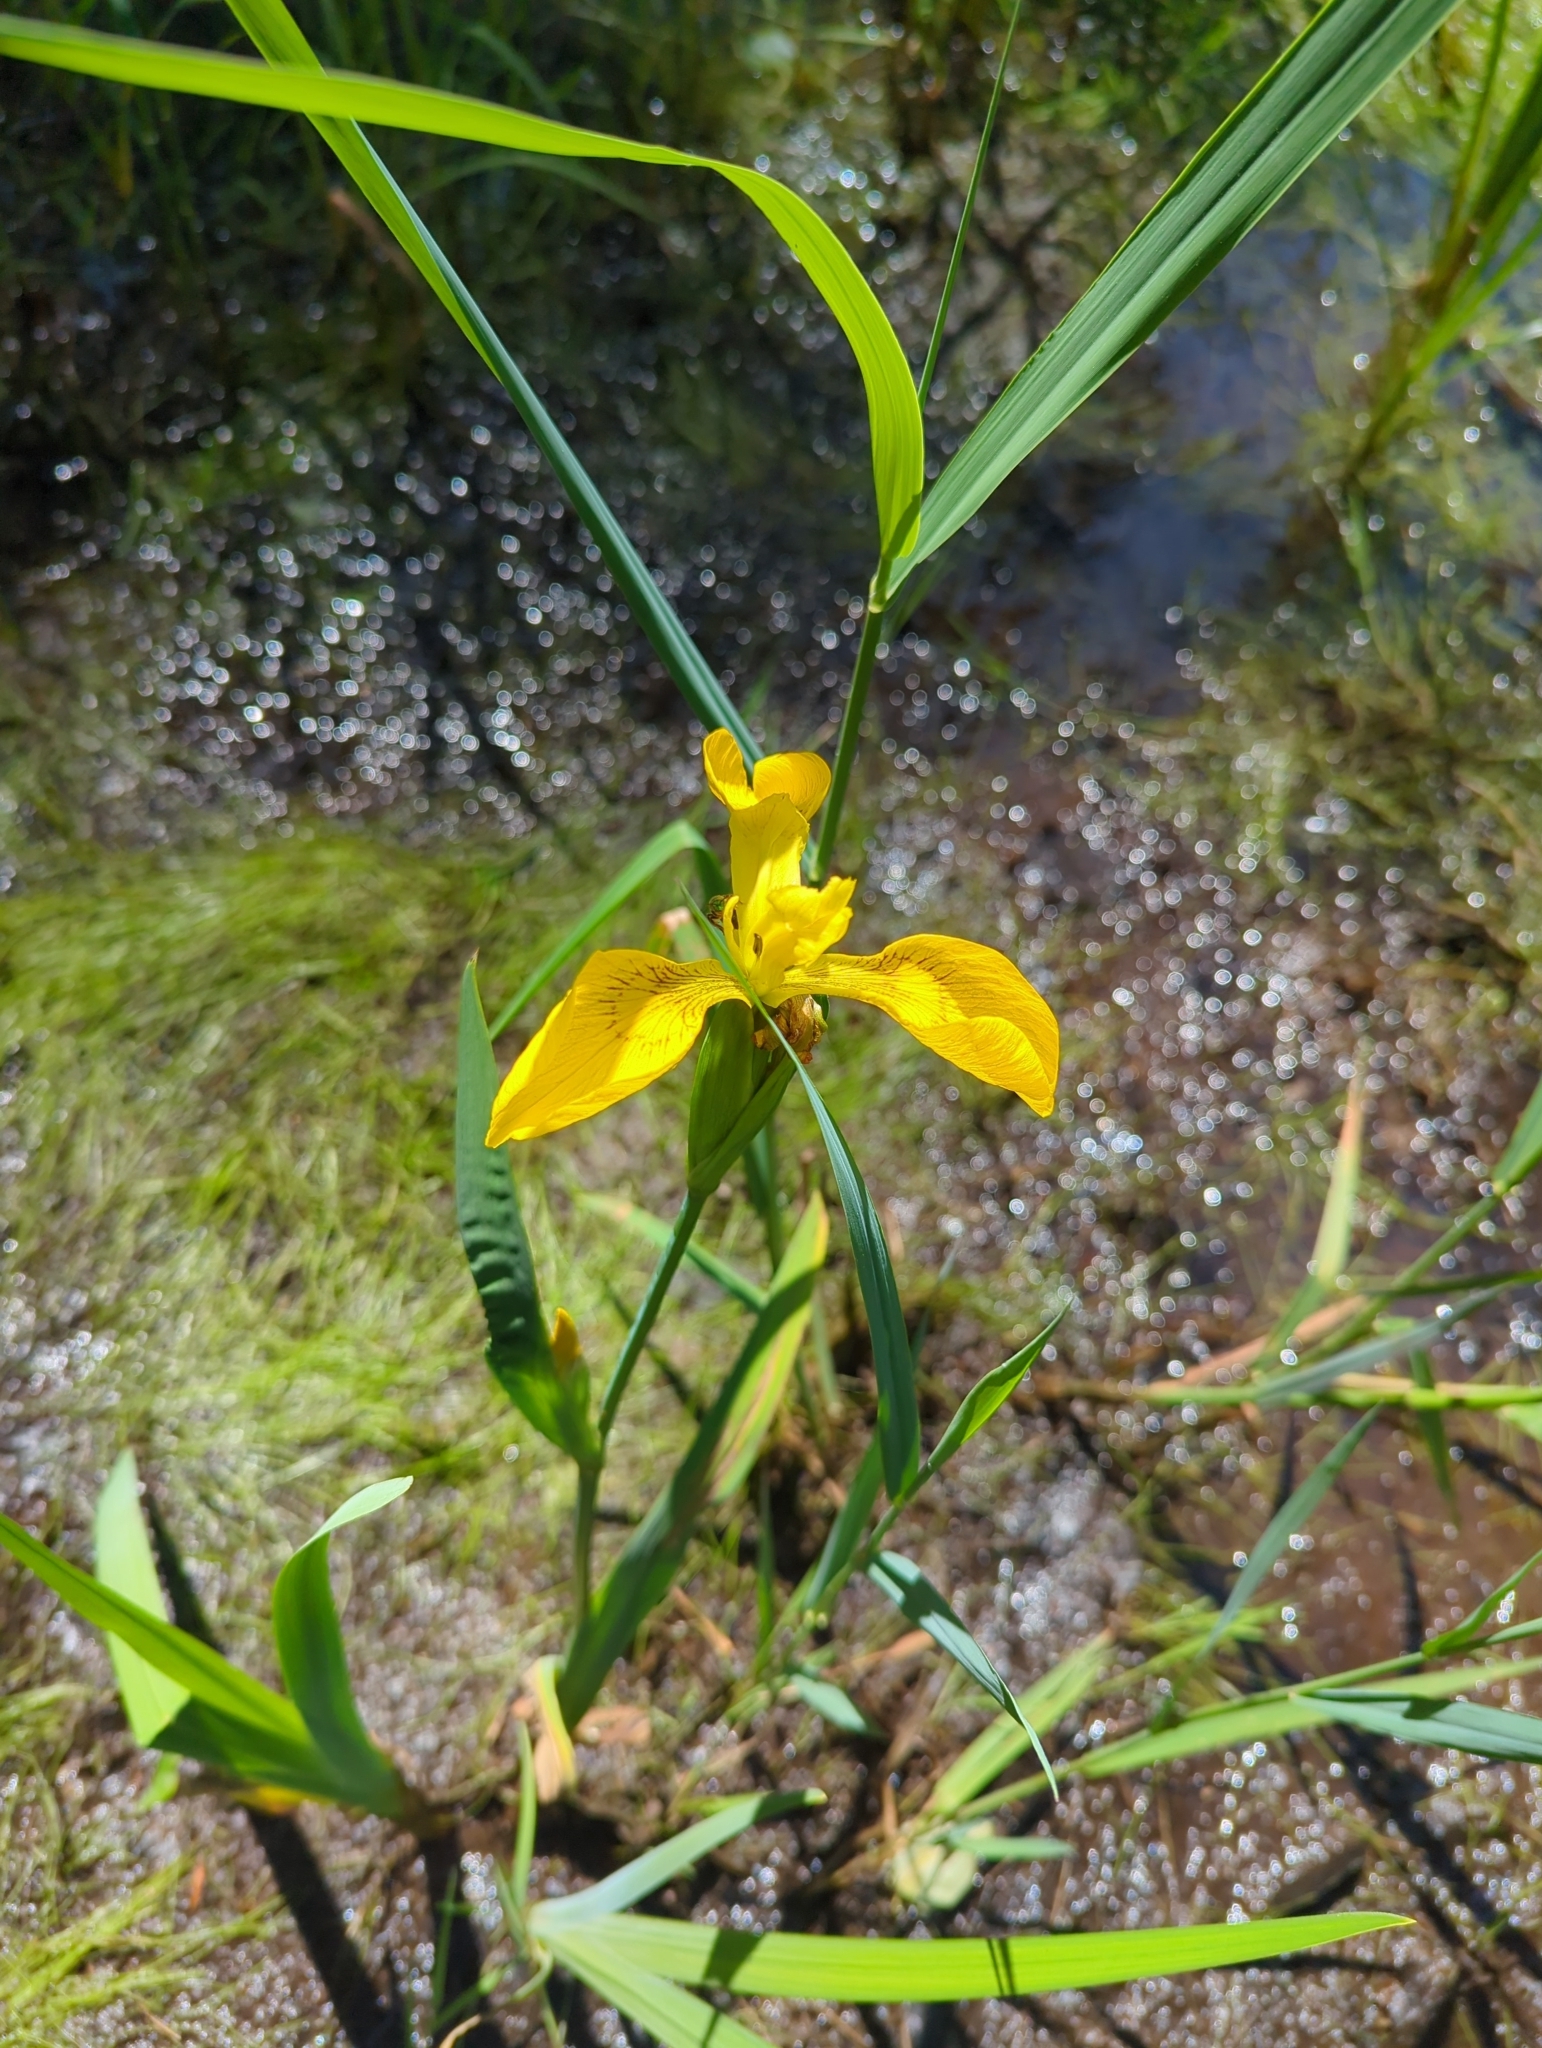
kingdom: Plantae
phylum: Tracheophyta
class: Liliopsida
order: Asparagales
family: Iridaceae
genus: Iris
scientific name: Iris pseudacorus
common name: Yellow flag
